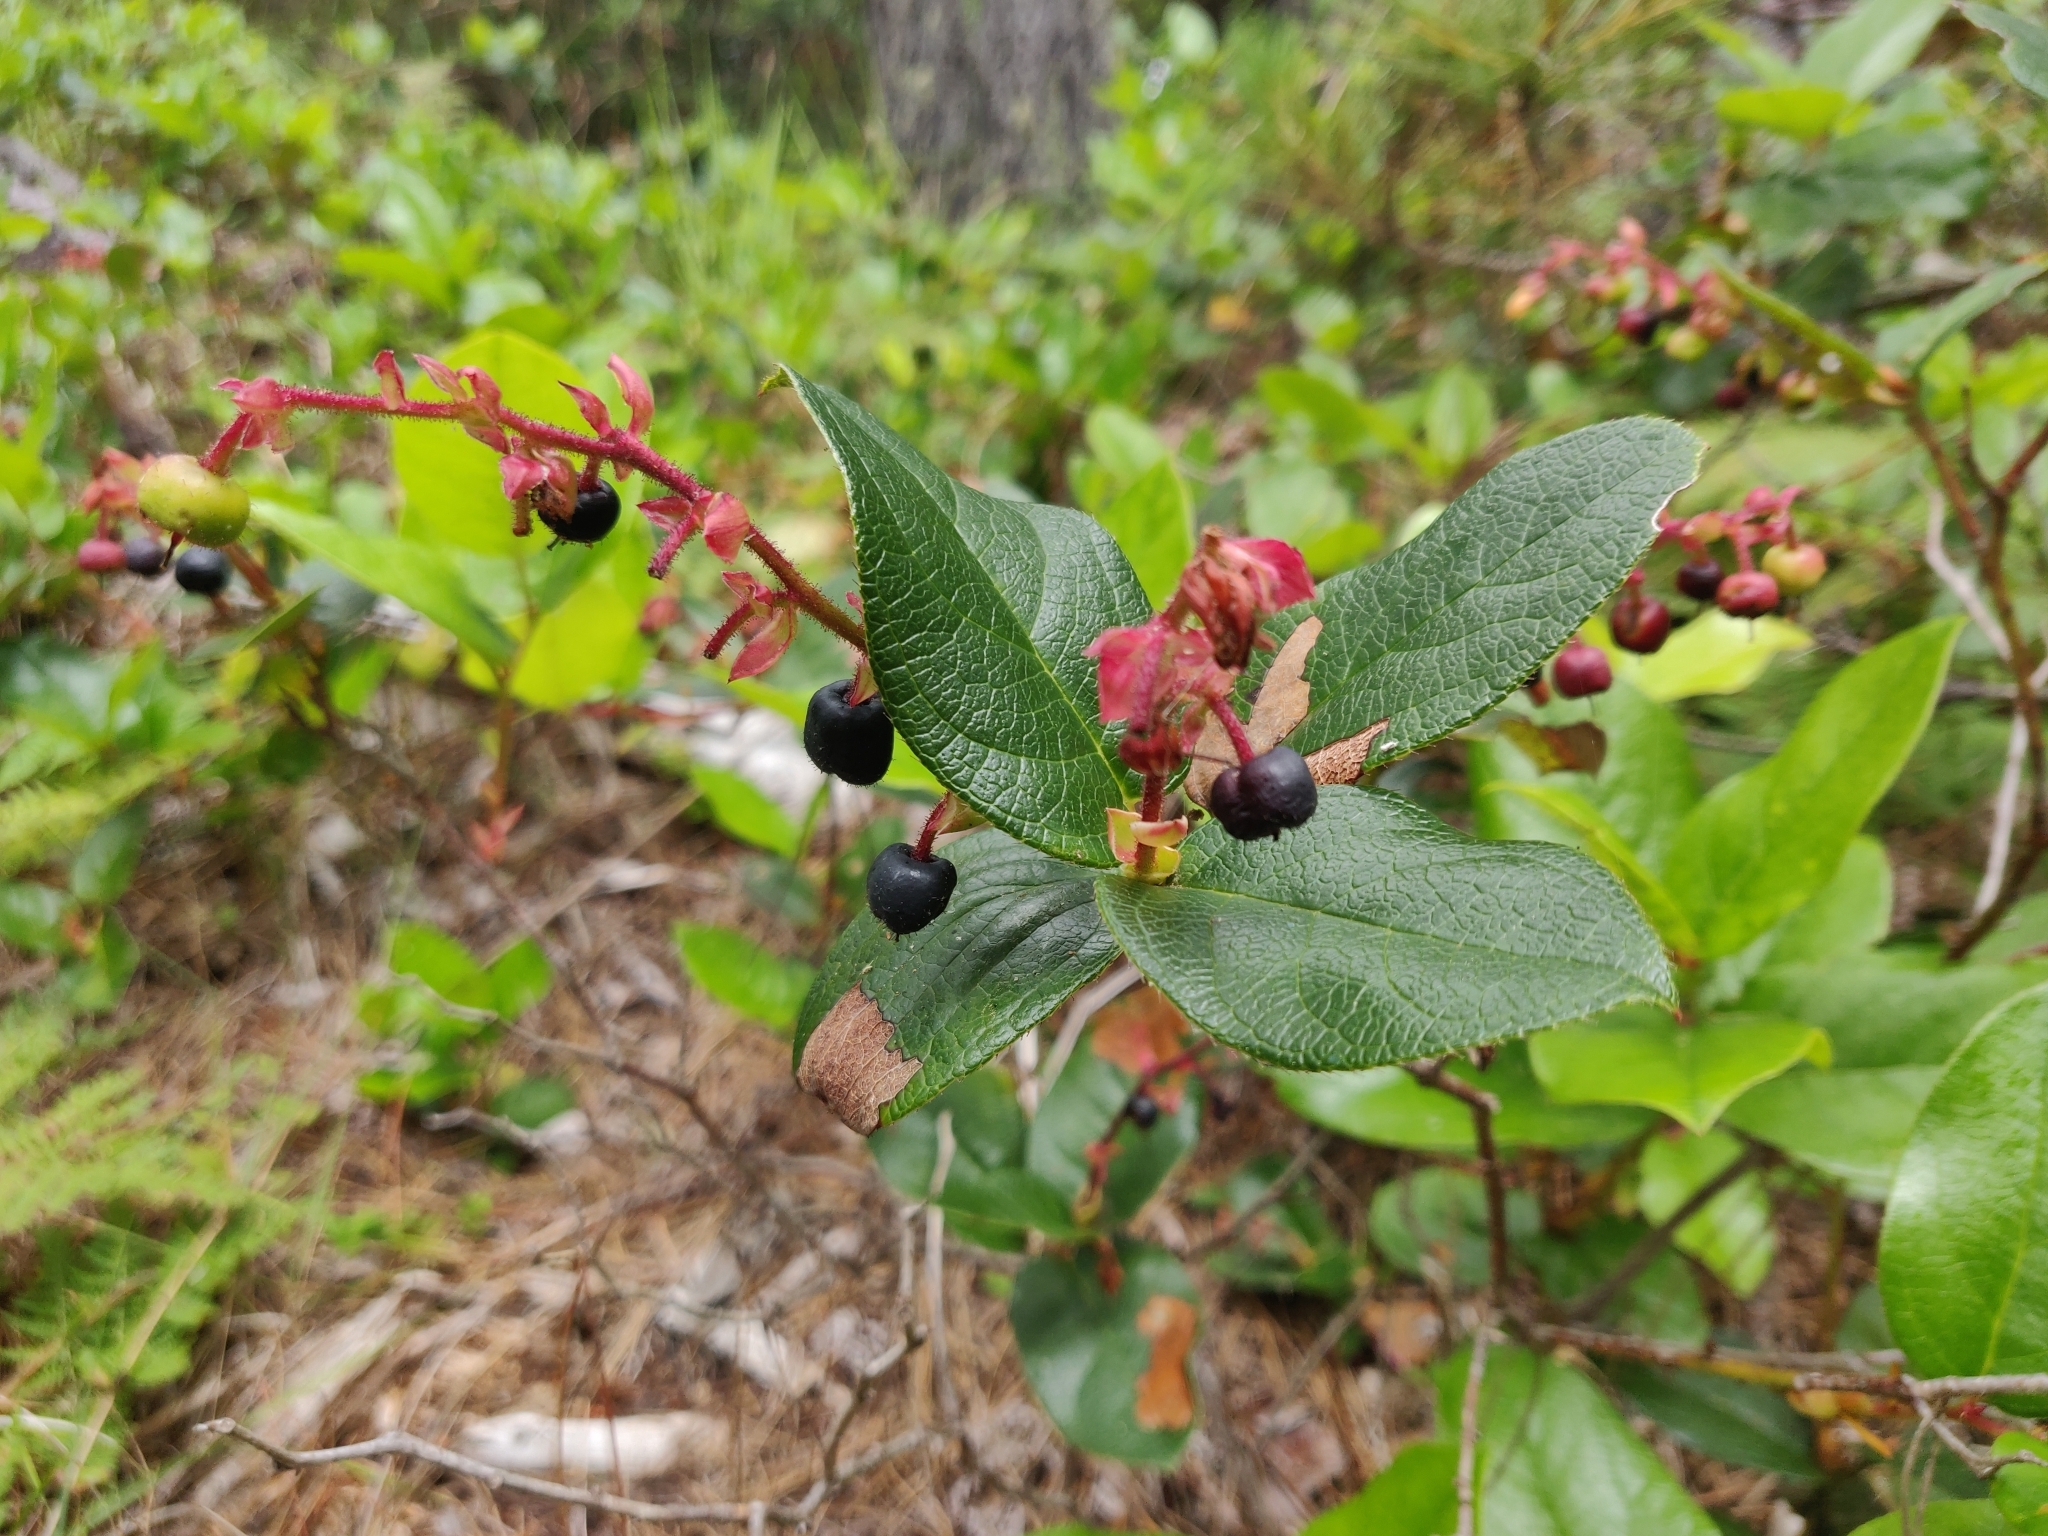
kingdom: Plantae
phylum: Tracheophyta
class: Magnoliopsida
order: Ericales
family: Ericaceae
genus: Gaultheria
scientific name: Gaultheria shallon
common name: Shallon
